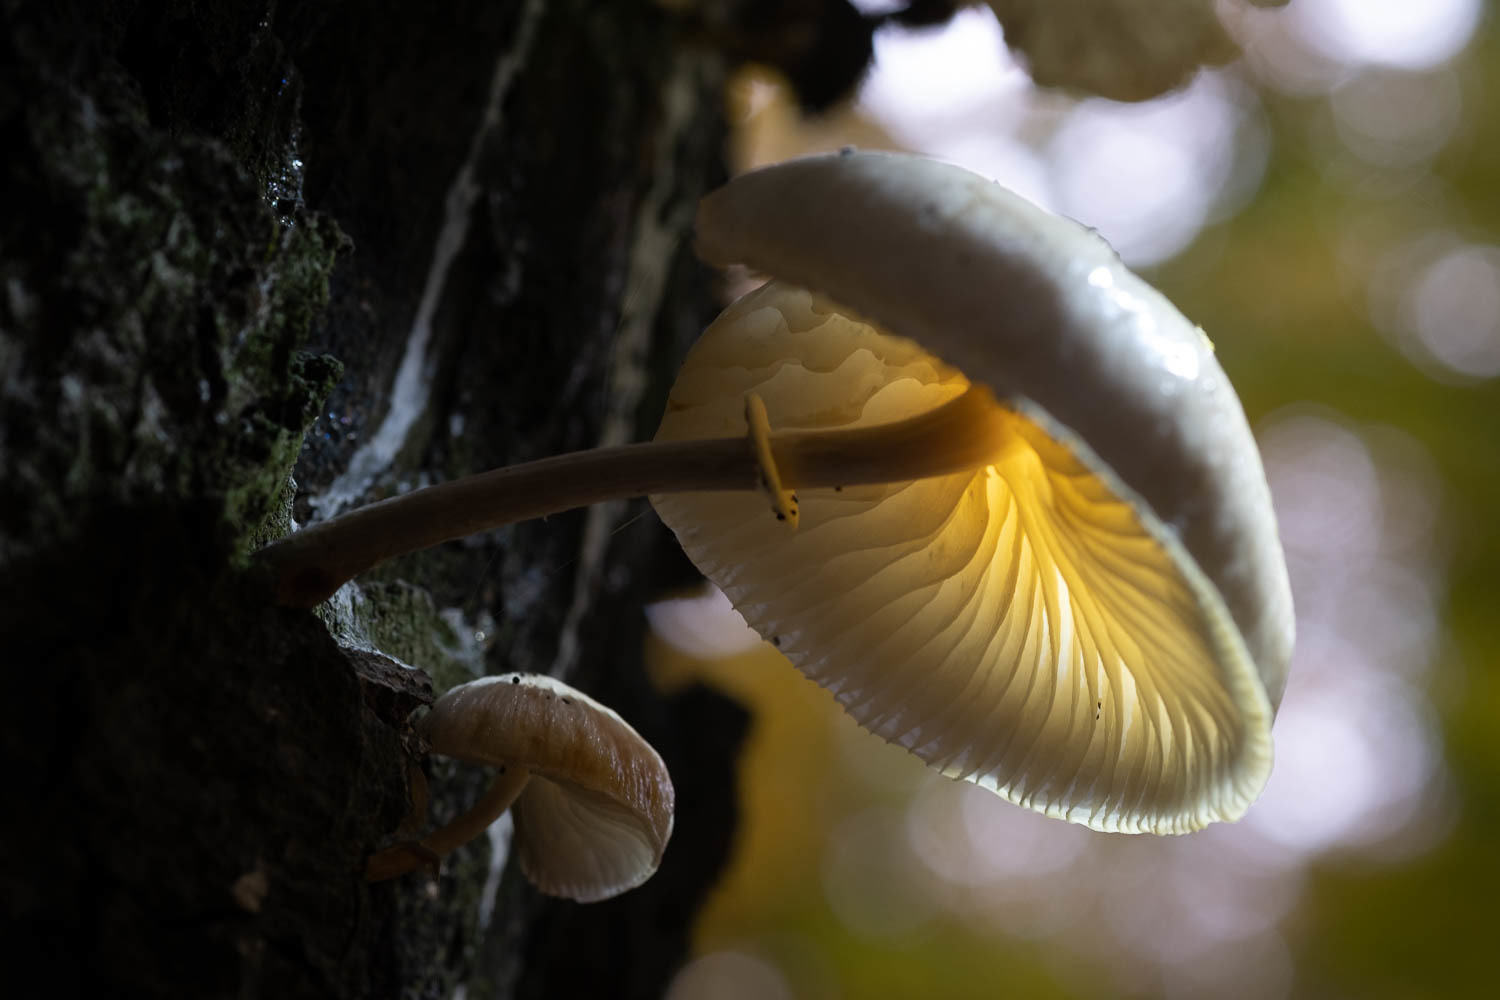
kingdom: Fungi
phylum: Basidiomycota
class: Agaricomycetes
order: Agaricales
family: Physalacriaceae
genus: Mucidula
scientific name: Mucidula mucida
